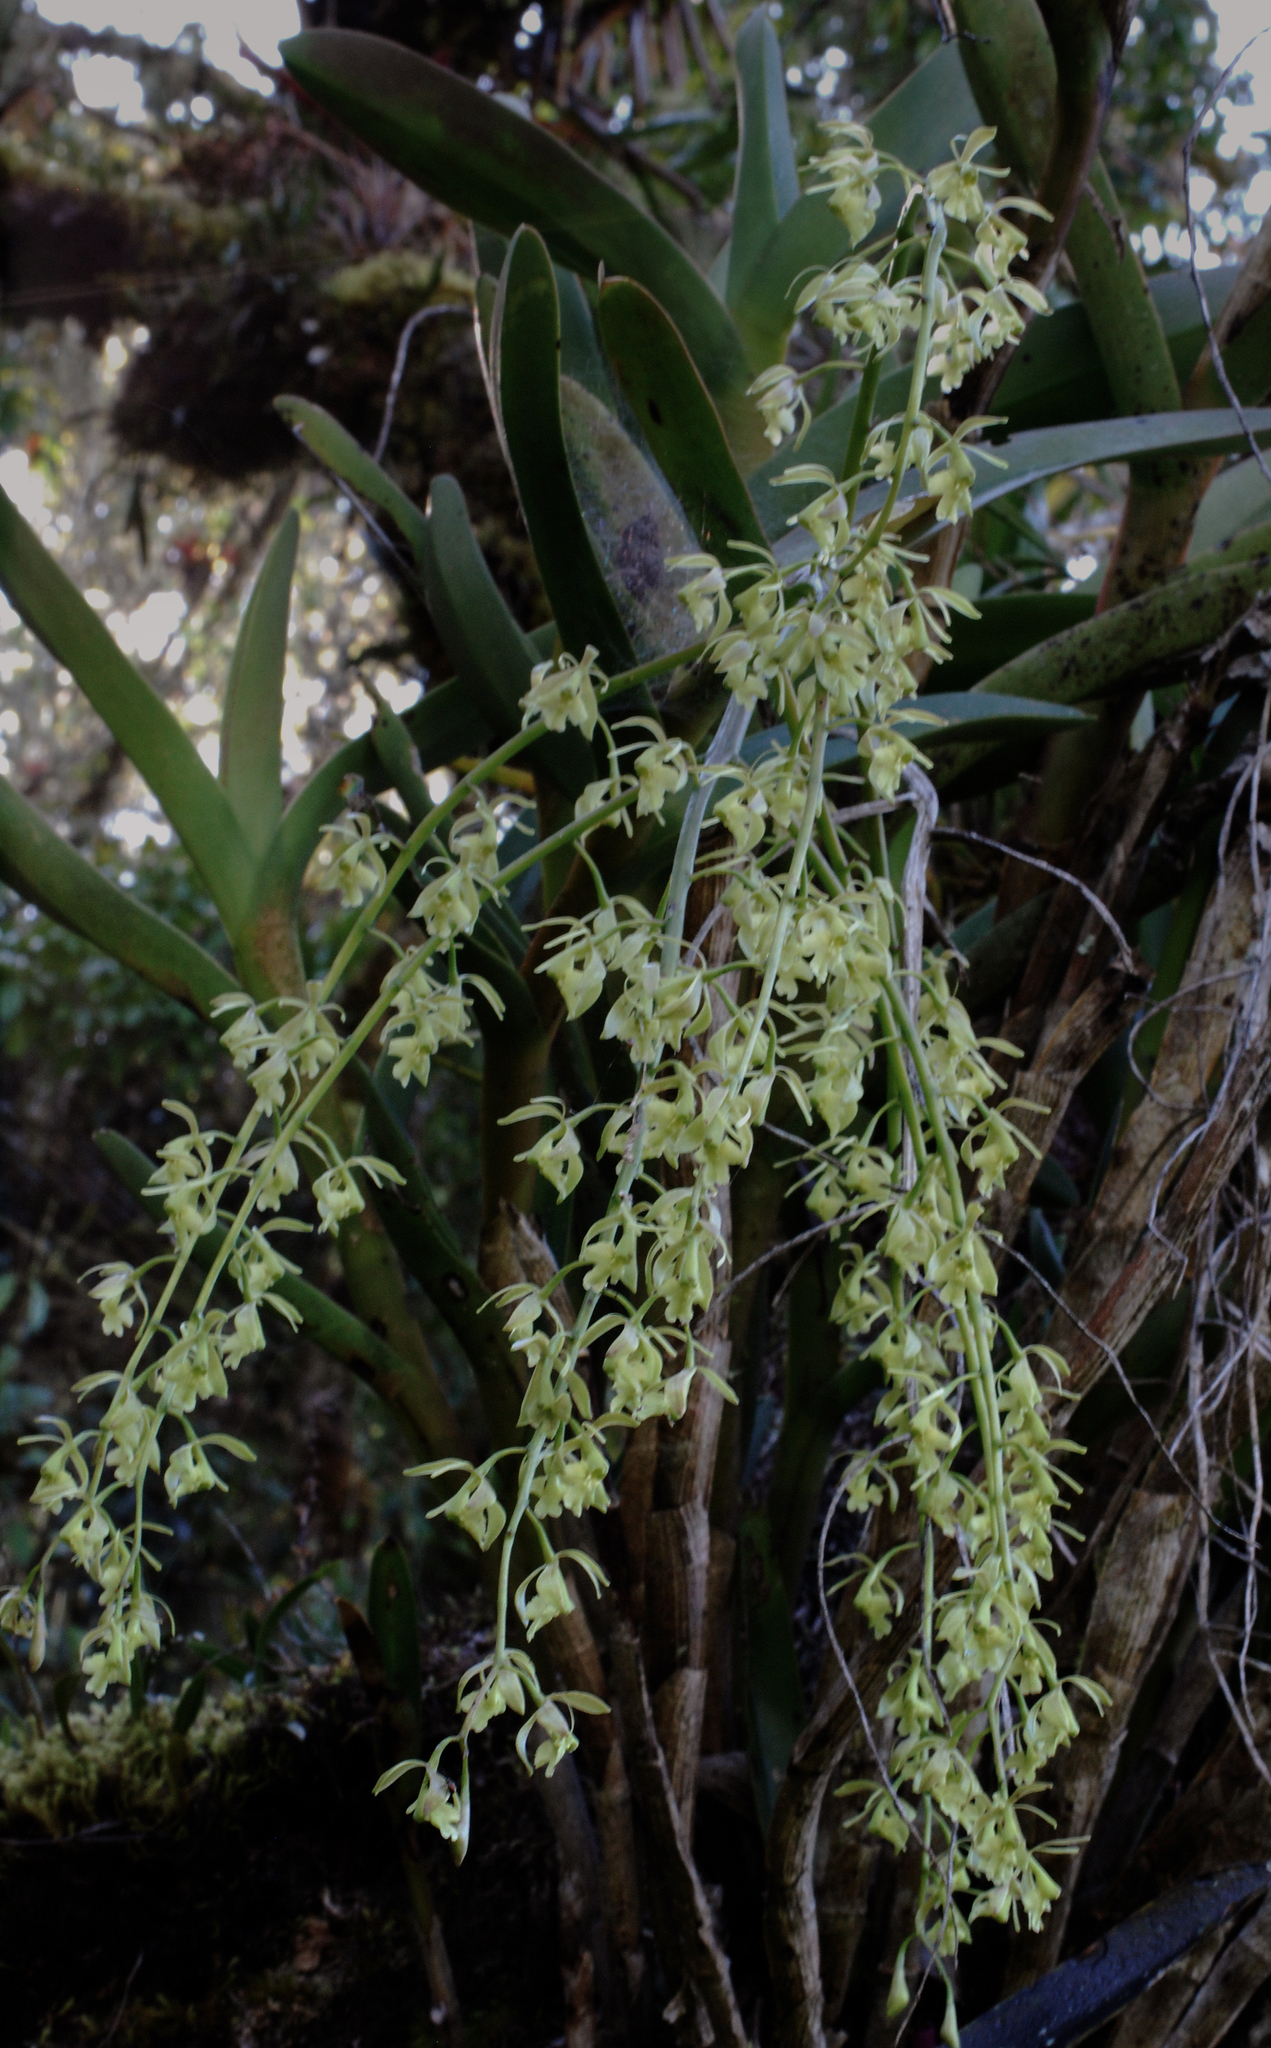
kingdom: Plantae
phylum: Tracheophyta
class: Liliopsida
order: Asparagales
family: Orchidaceae
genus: Epidendrum
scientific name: Epidendrum excisum
